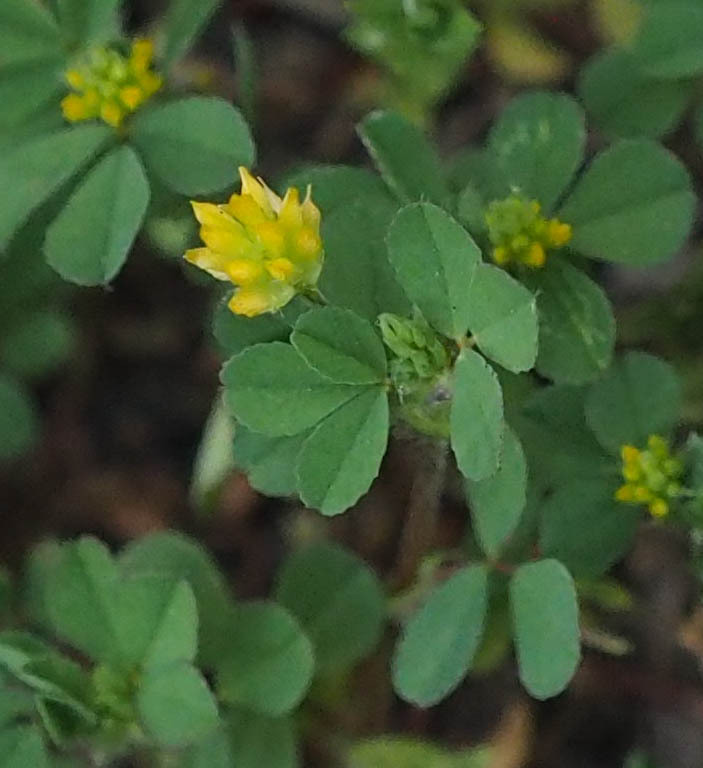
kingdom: Plantae
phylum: Tracheophyta
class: Magnoliopsida
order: Fabales
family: Fabaceae
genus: Trifolium
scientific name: Trifolium dubium
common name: Suckling clover
